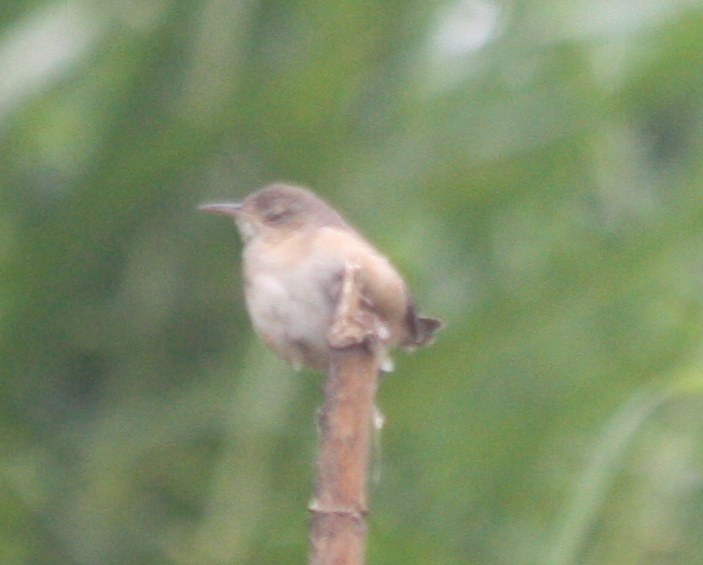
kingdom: Animalia
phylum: Chordata
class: Aves
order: Passeriformes
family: Troglodytidae
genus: Troglodytes
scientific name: Troglodytes aedon
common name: House wren
